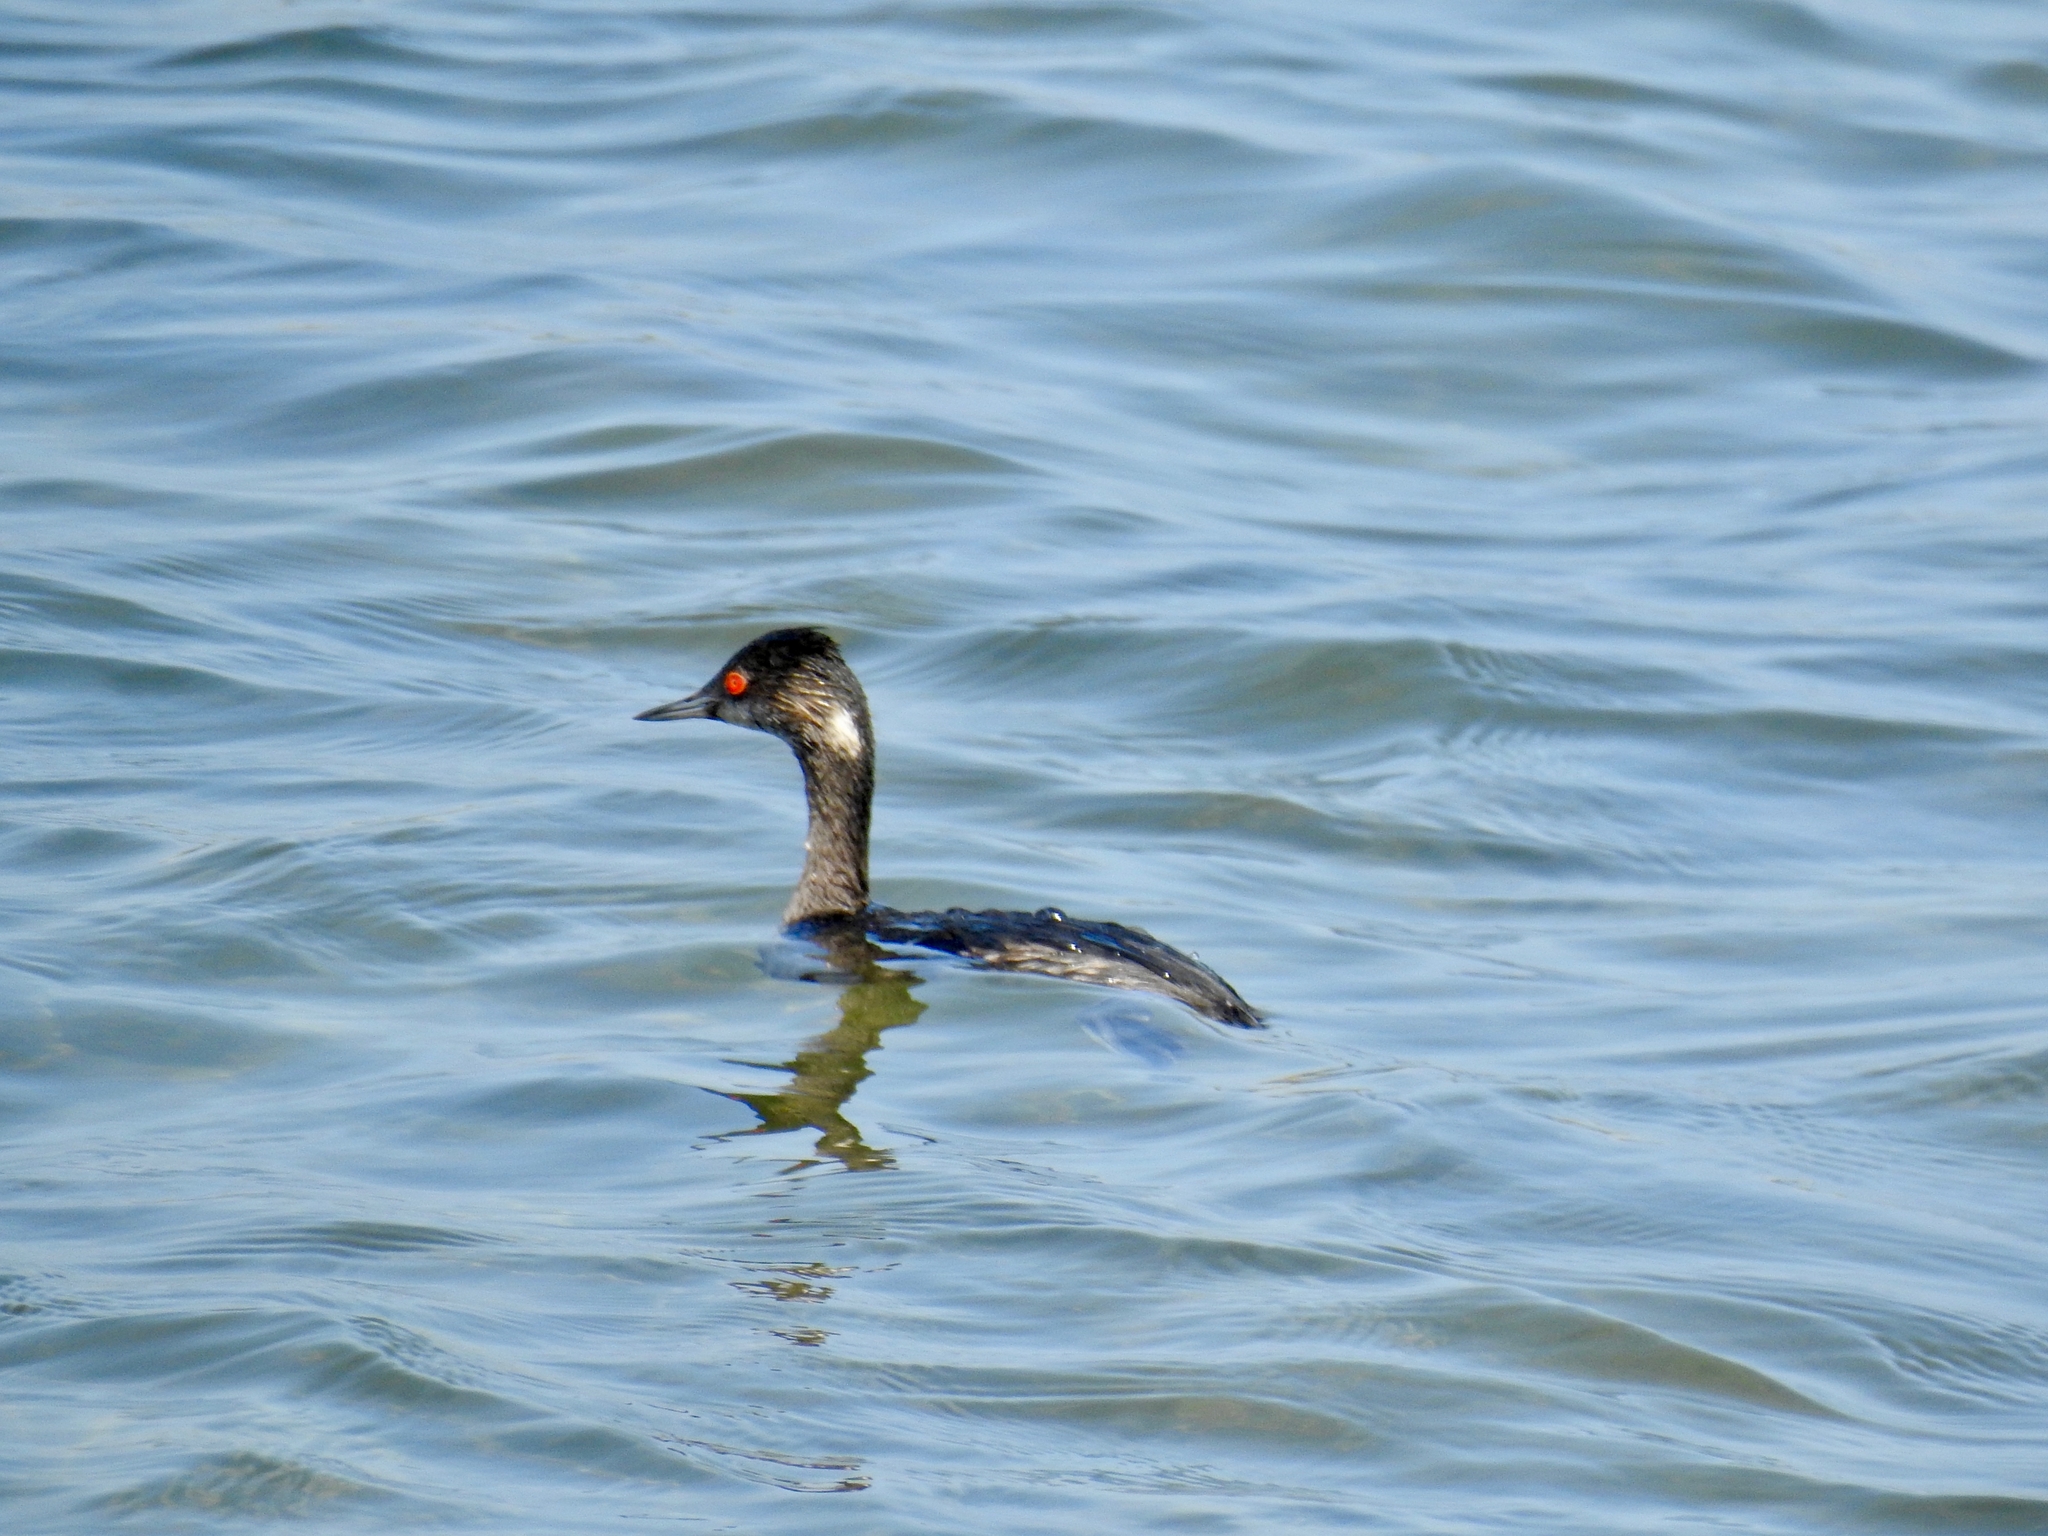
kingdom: Animalia
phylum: Chordata
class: Aves
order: Podicipediformes
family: Podicipedidae
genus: Podiceps
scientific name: Podiceps nigricollis
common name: Black-necked grebe
